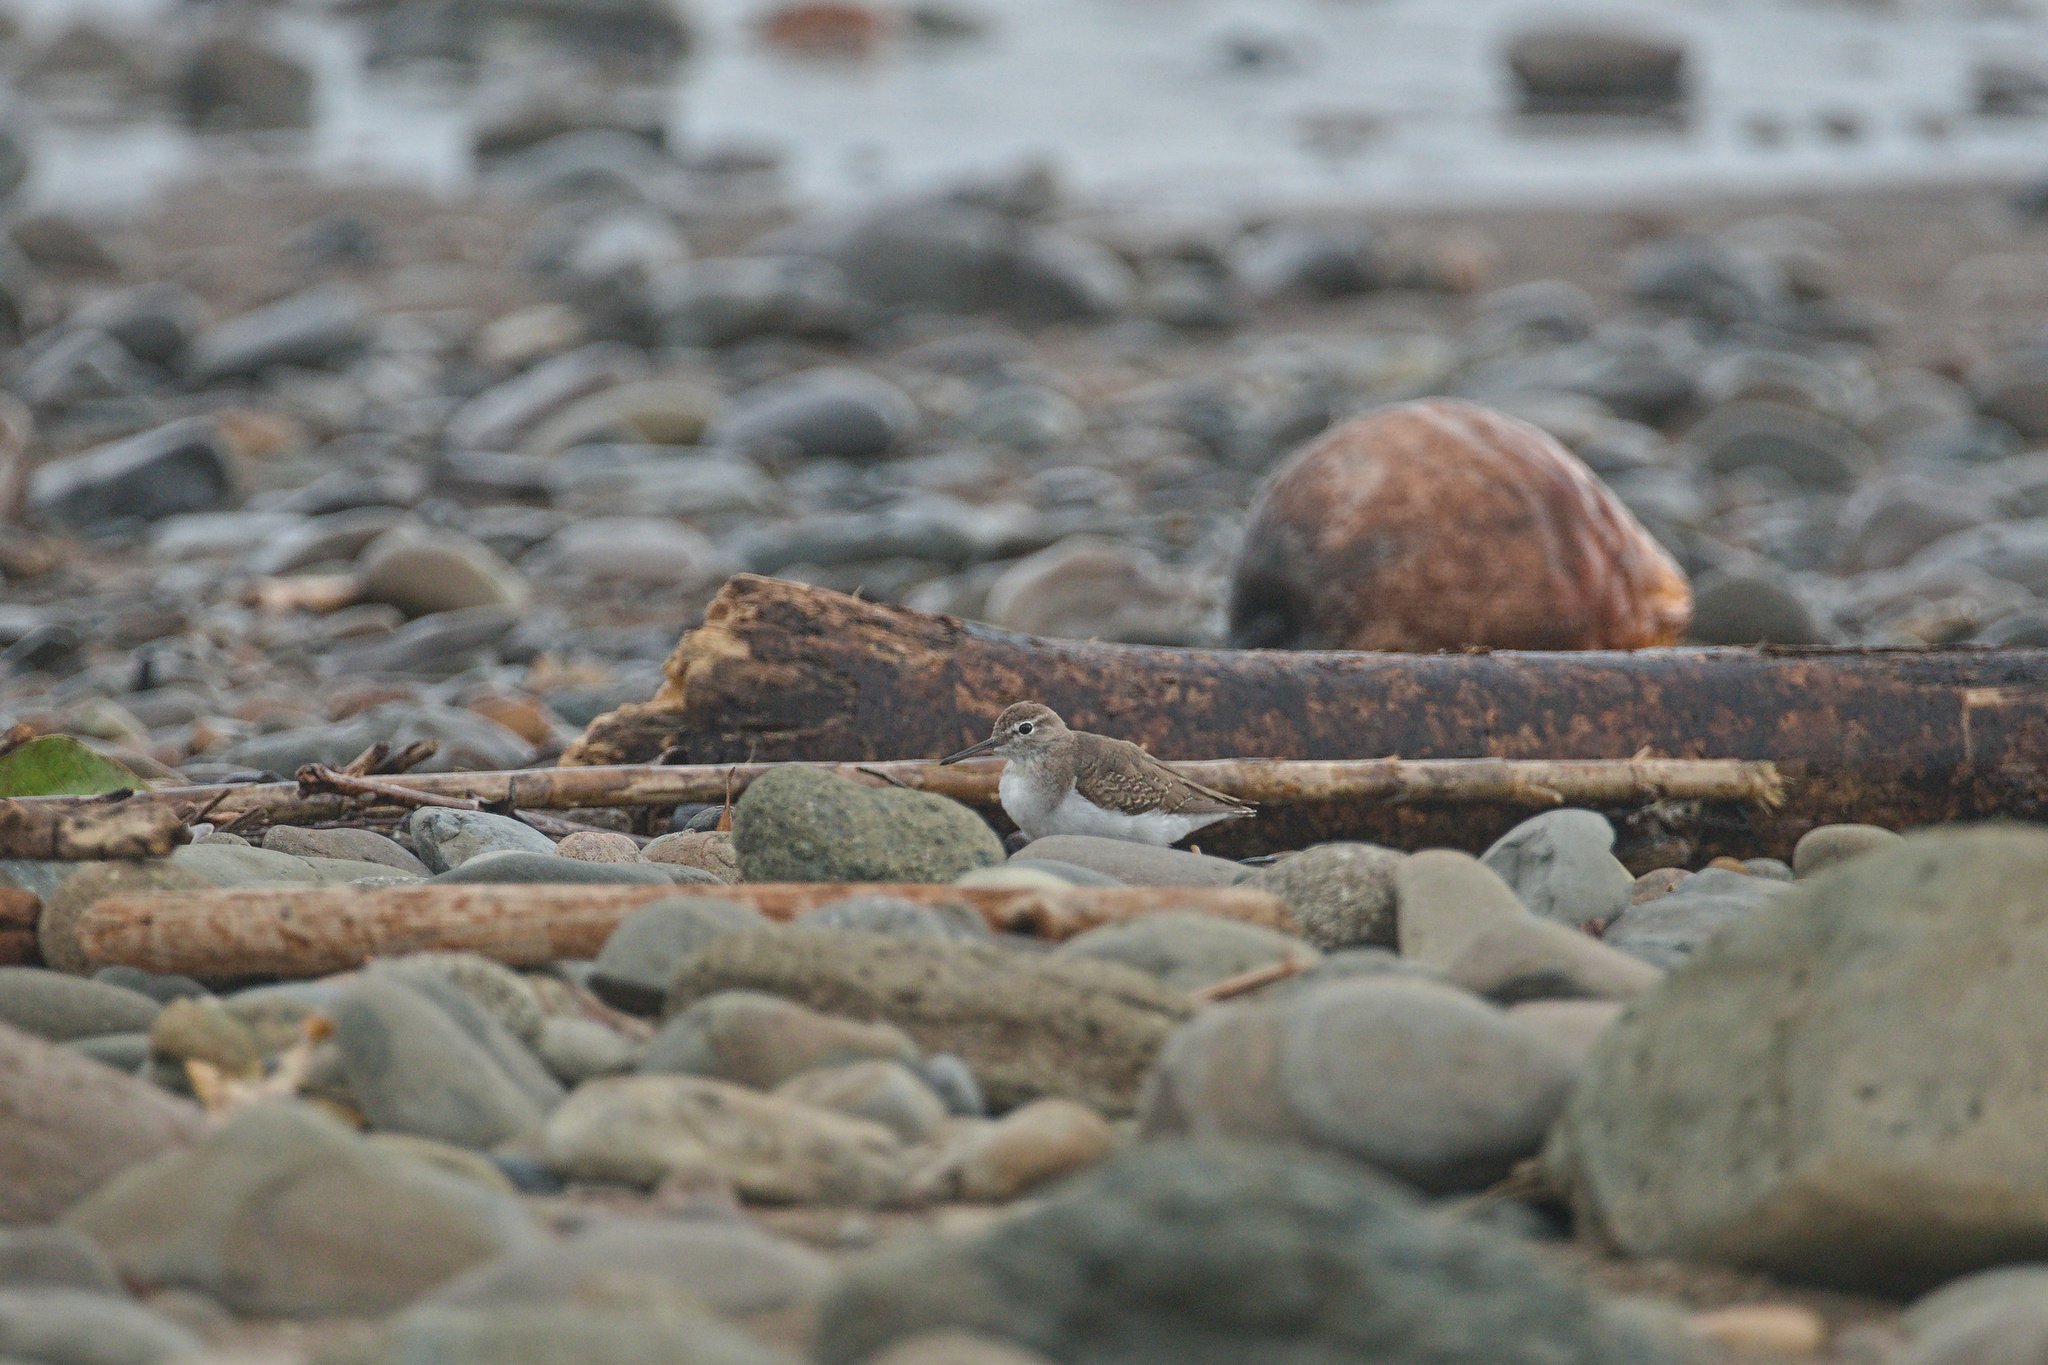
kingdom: Animalia
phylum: Chordata
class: Aves
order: Charadriiformes
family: Scolopacidae
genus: Actitis
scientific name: Actitis macularius
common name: Spotted sandpiper
